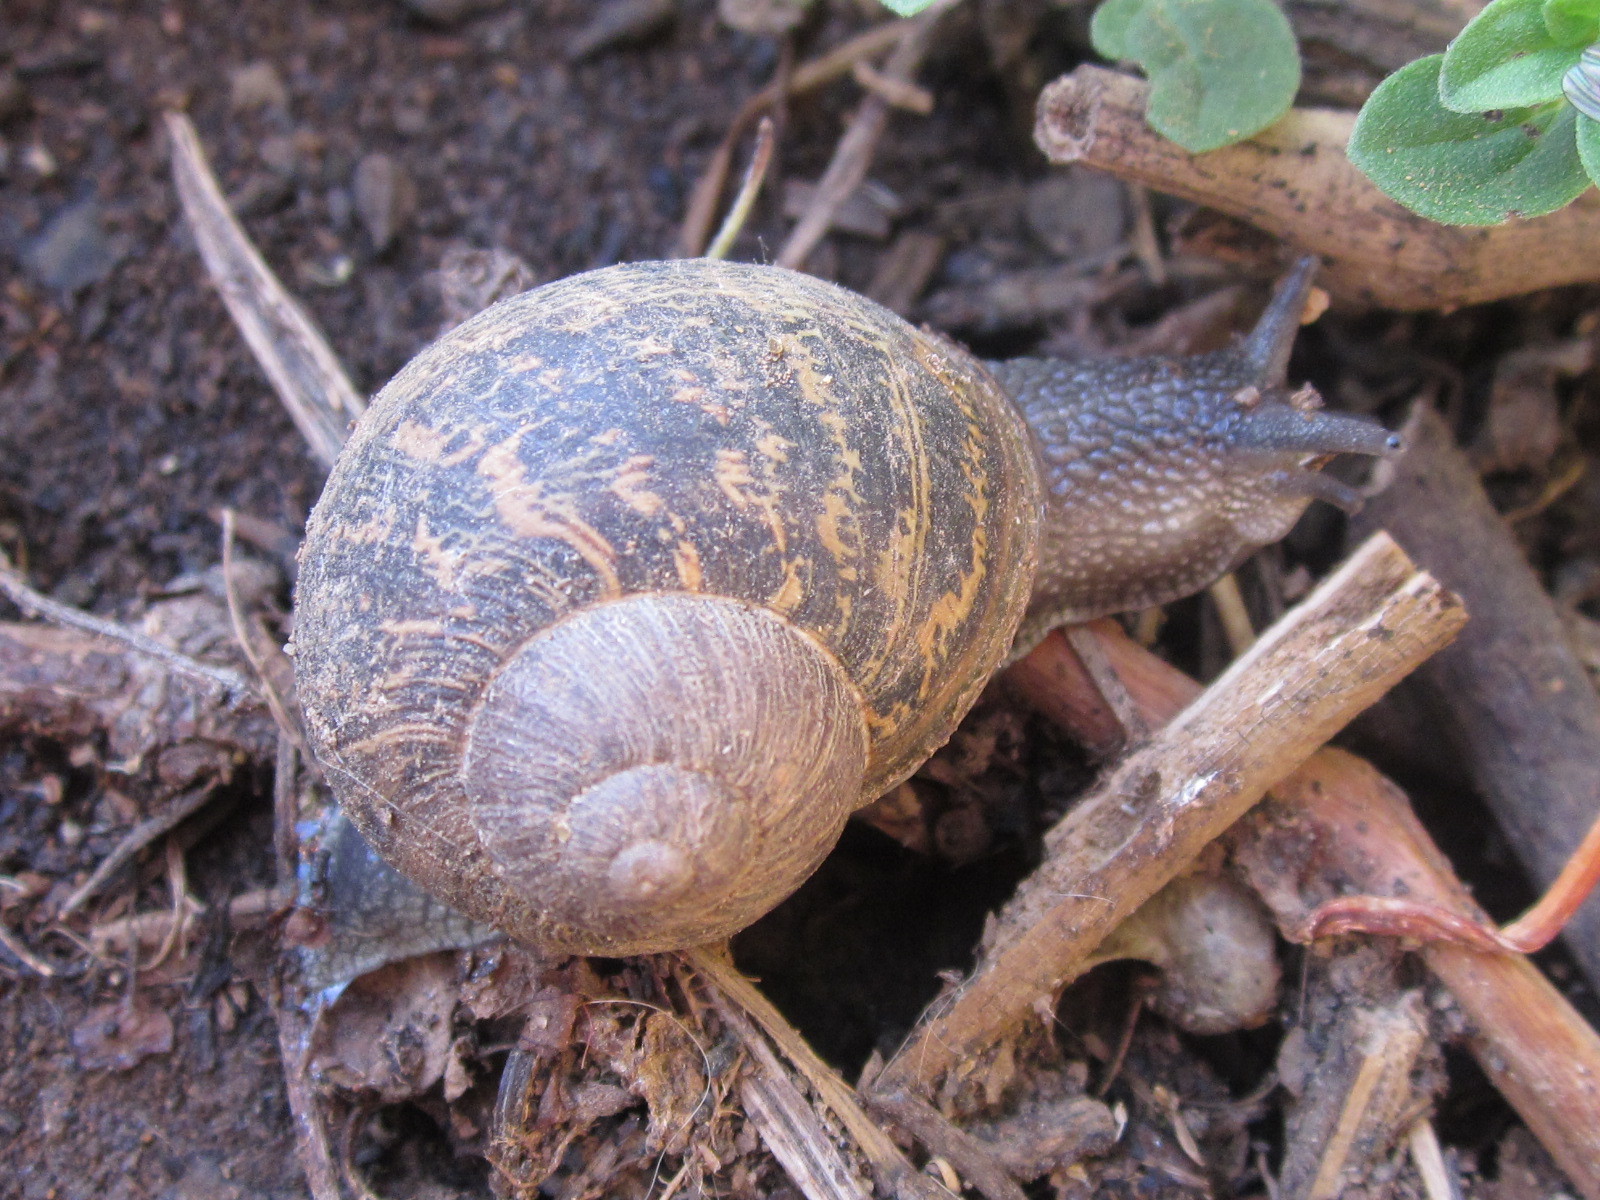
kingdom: Animalia
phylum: Mollusca
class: Gastropoda
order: Stylommatophora
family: Helicidae
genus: Cornu
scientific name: Cornu aspersum
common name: Brown garden snail
